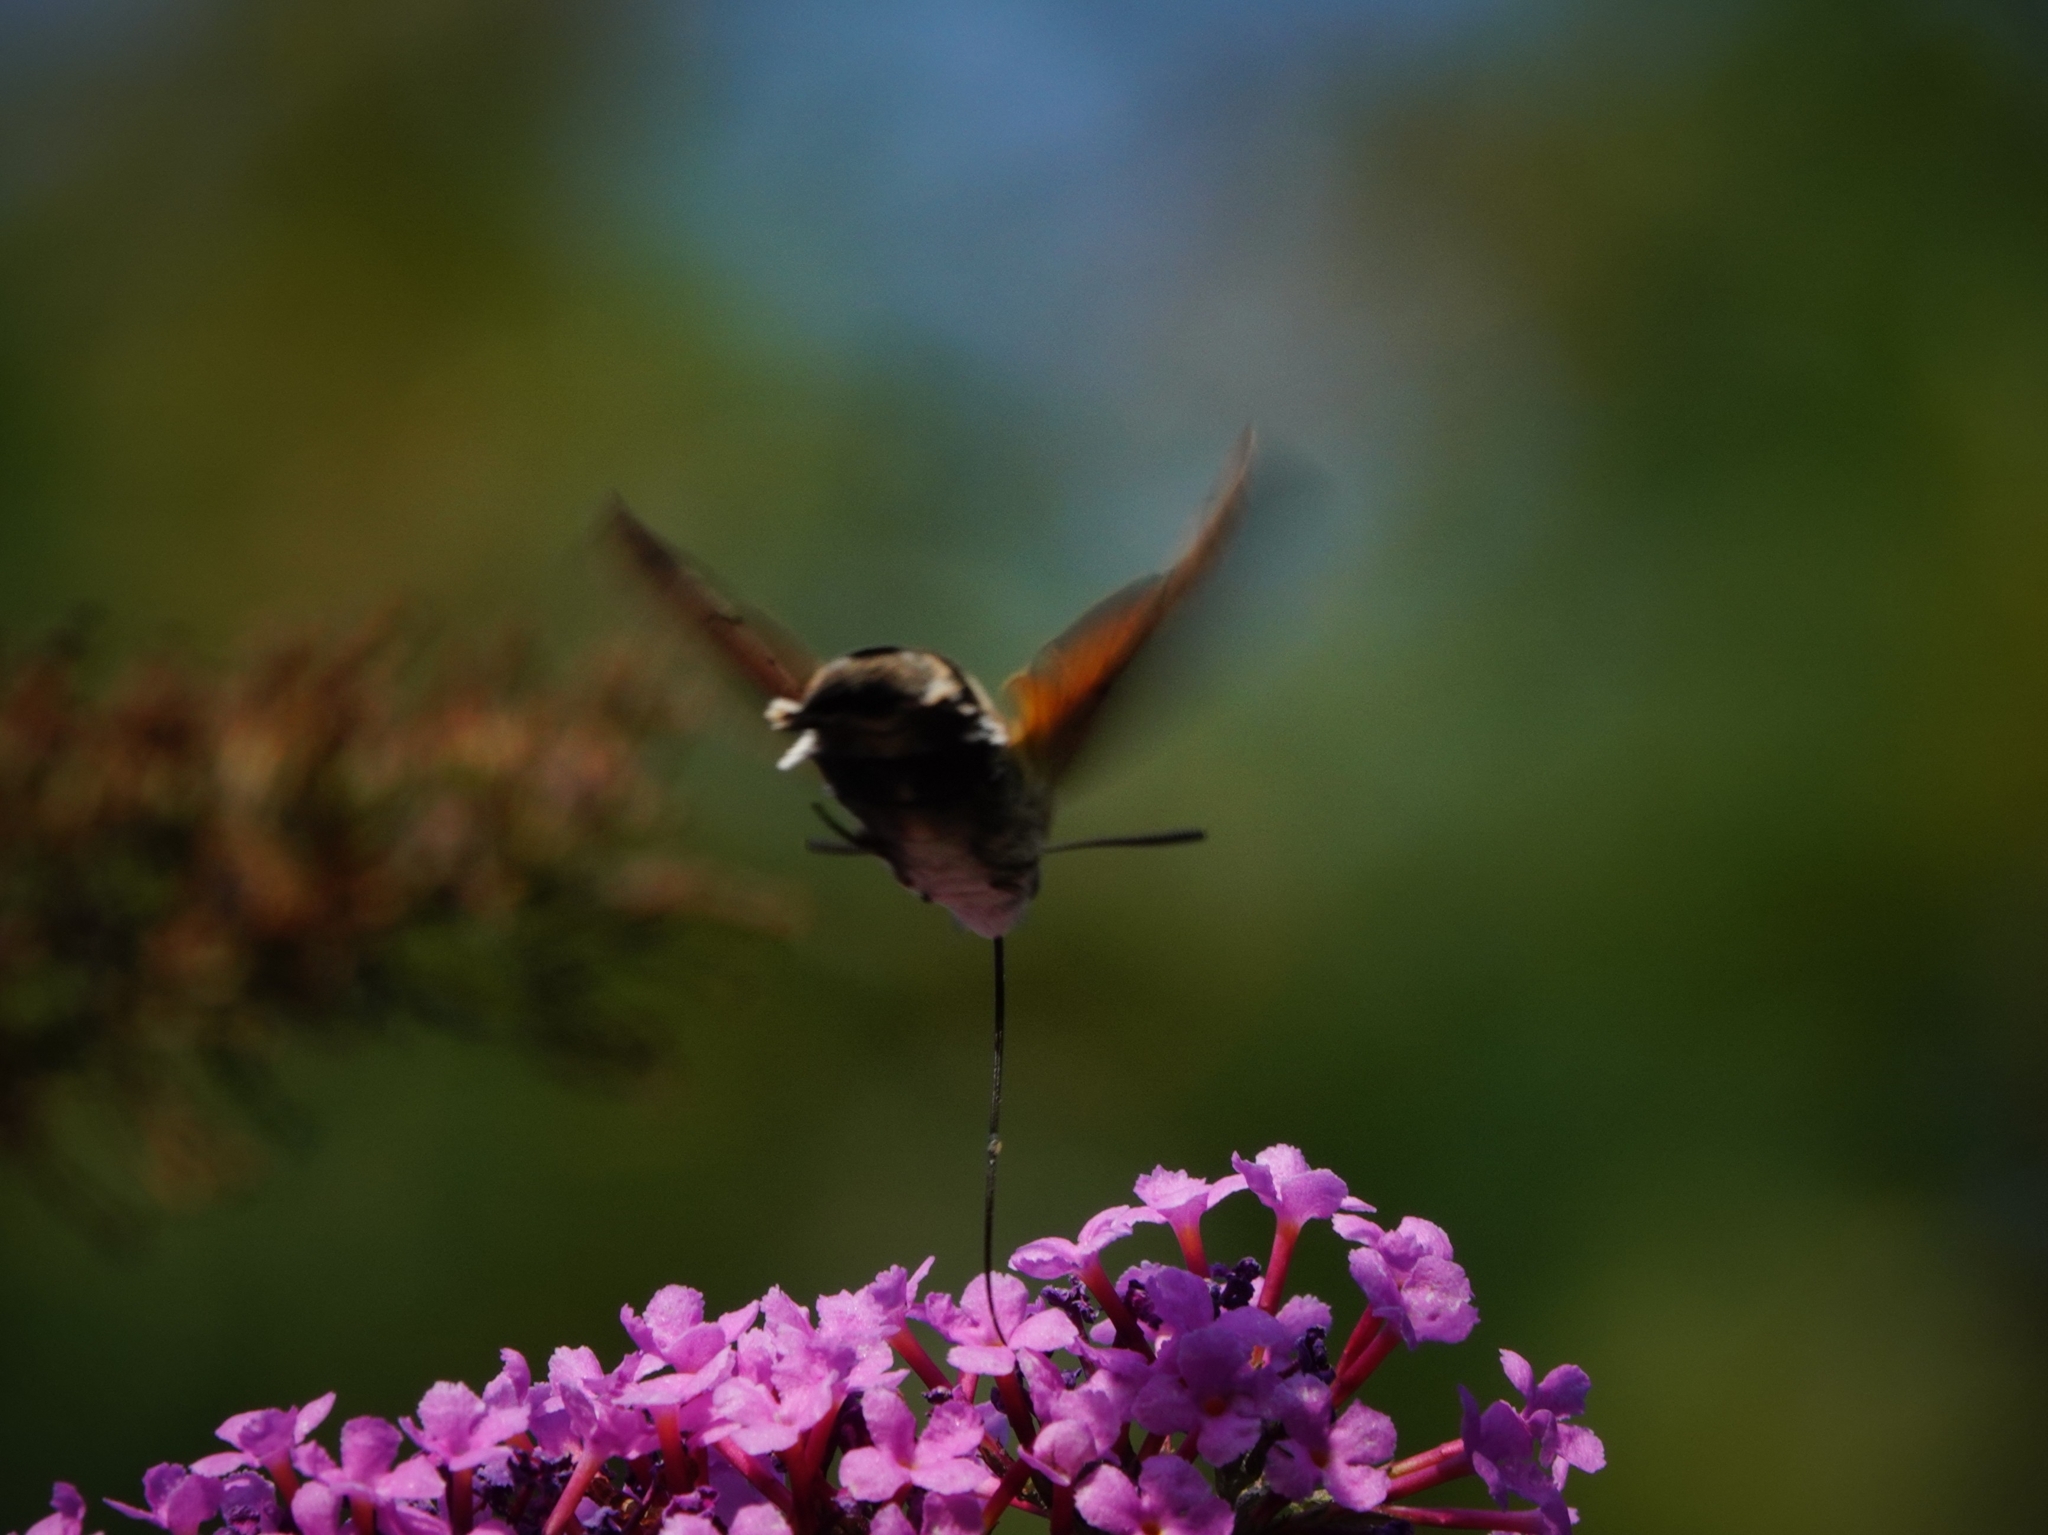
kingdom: Animalia
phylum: Arthropoda
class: Insecta
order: Lepidoptera
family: Sphingidae
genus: Macroglossum
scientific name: Macroglossum stellatarum
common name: Humming-bird hawk-moth
